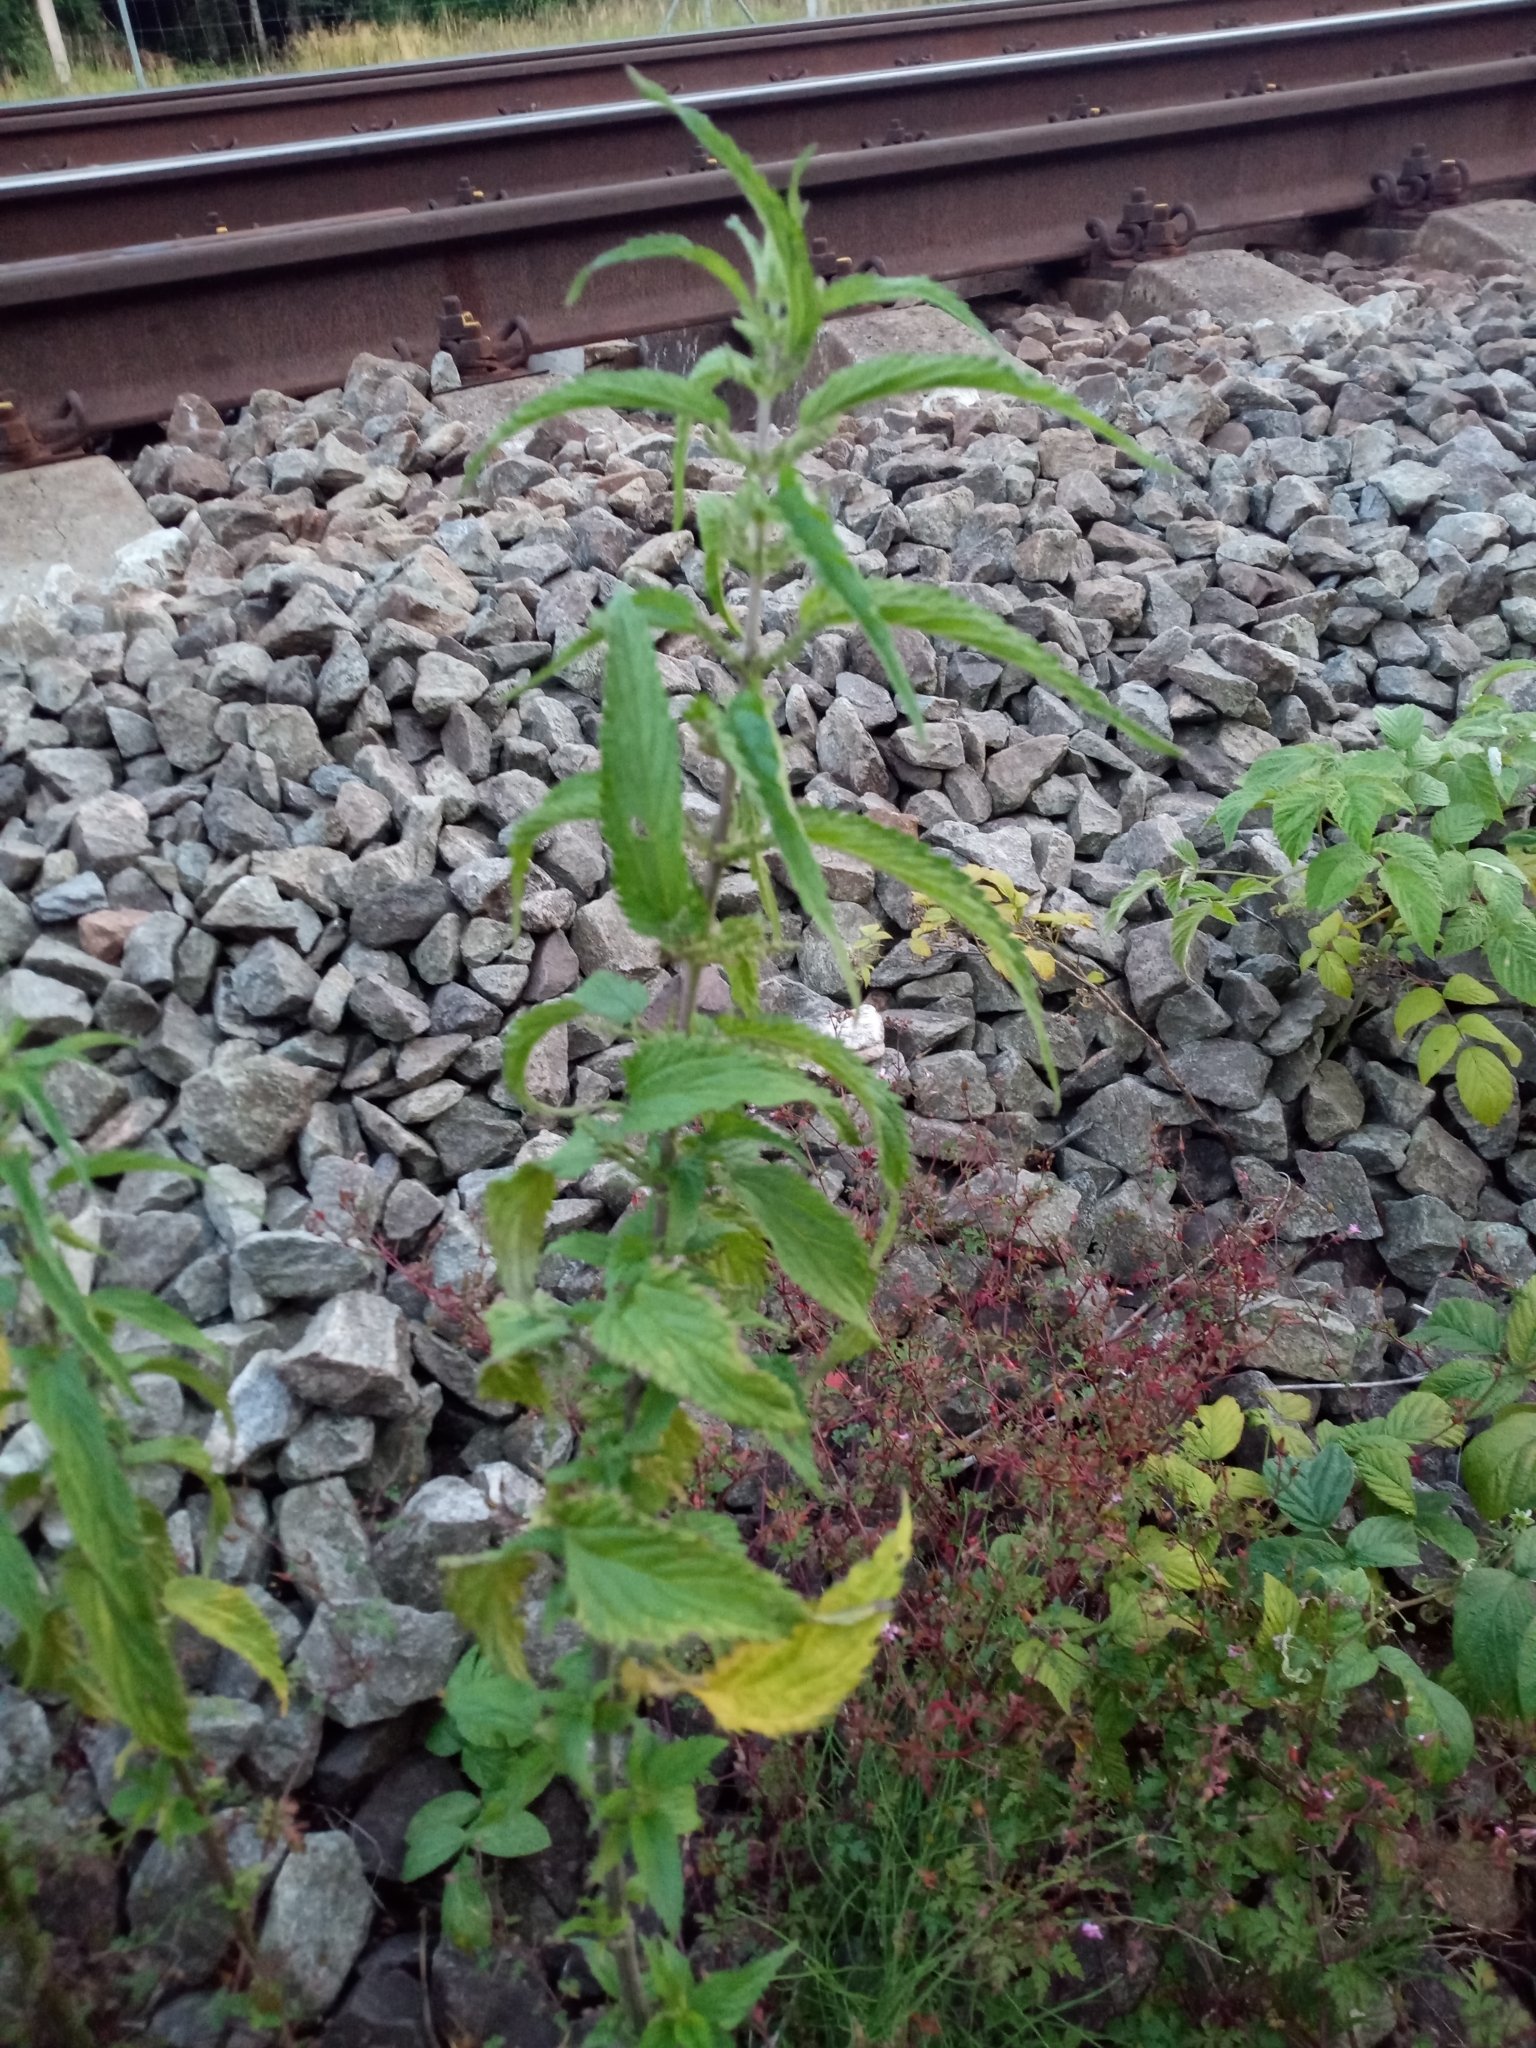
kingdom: Plantae
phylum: Tracheophyta
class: Magnoliopsida
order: Rosales
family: Urticaceae
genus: Urtica
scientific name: Urtica dioica
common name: Common nettle
